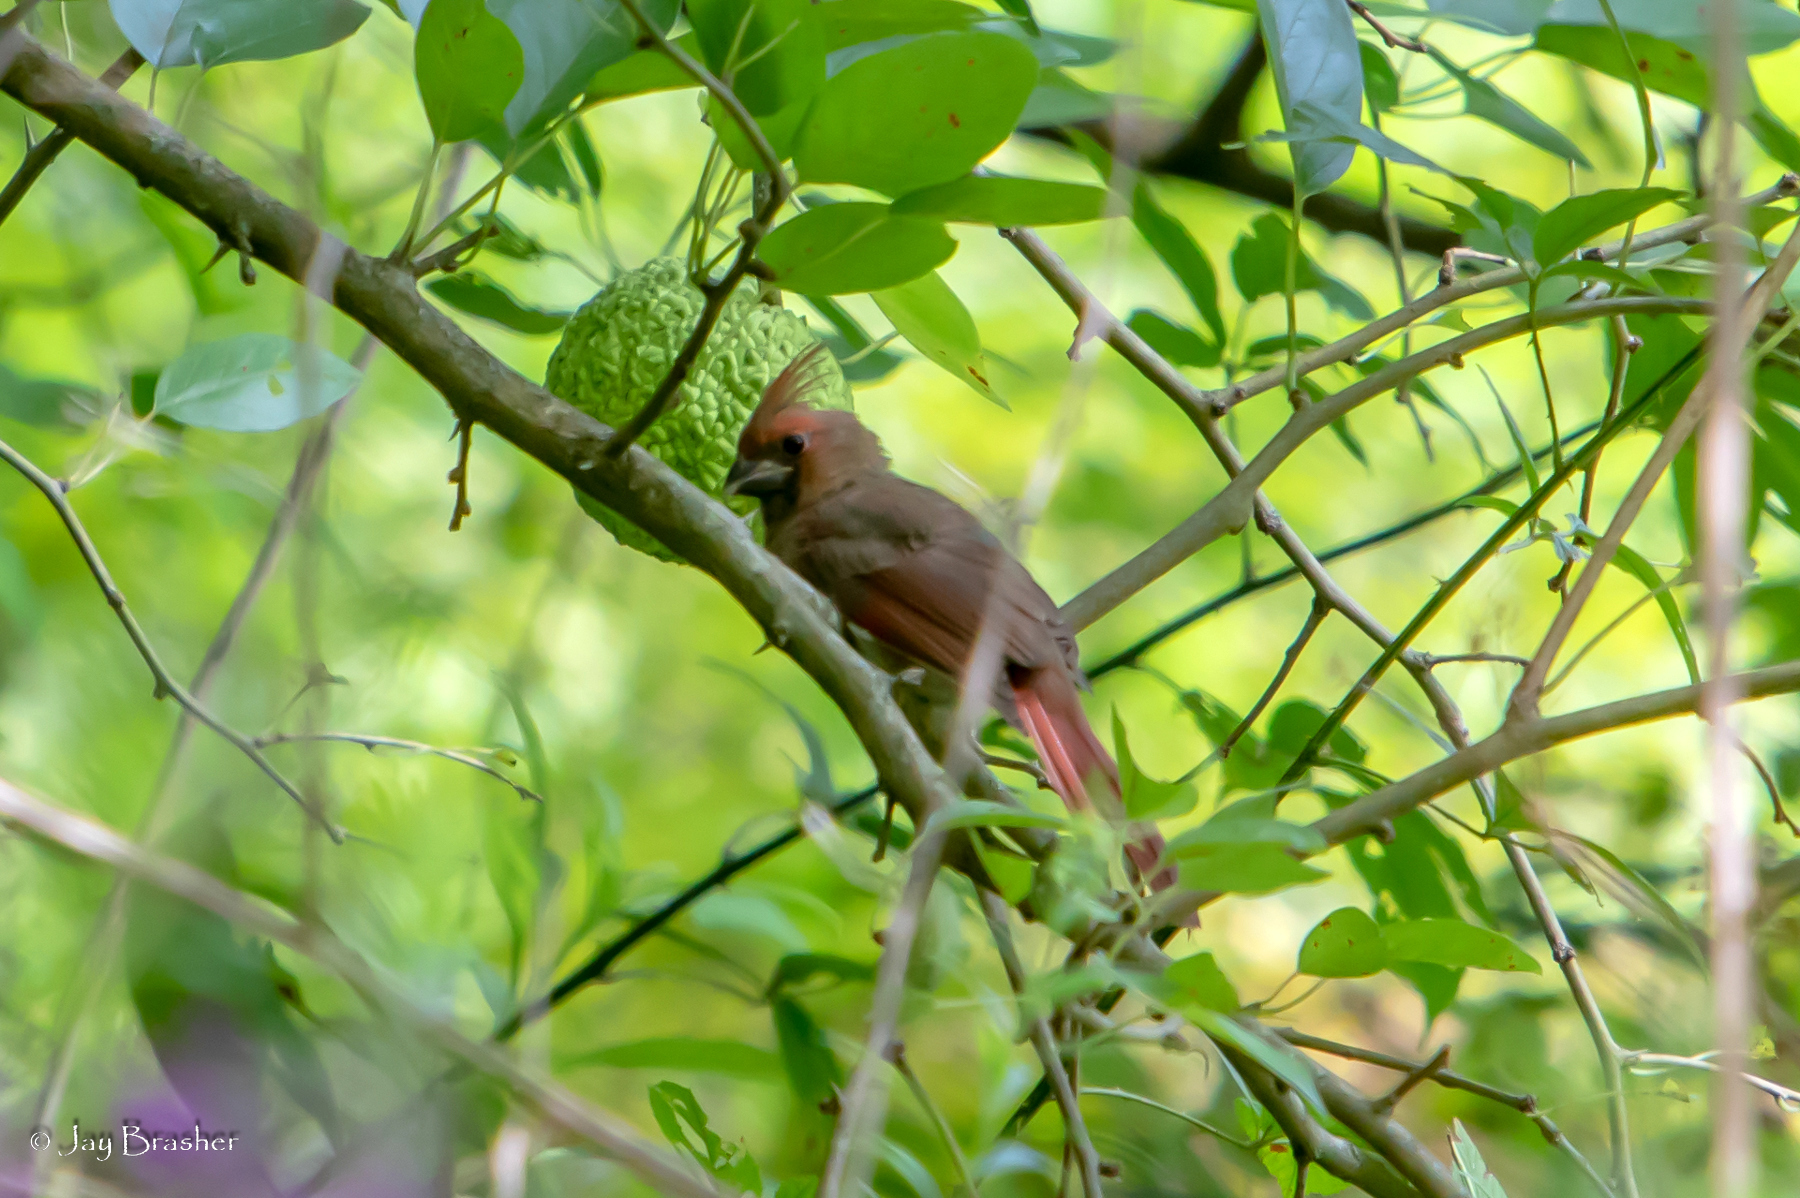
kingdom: Animalia
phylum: Chordata
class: Aves
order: Passeriformes
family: Cardinalidae
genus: Cardinalis
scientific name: Cardinalis cardinalis
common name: Northern cardinal
